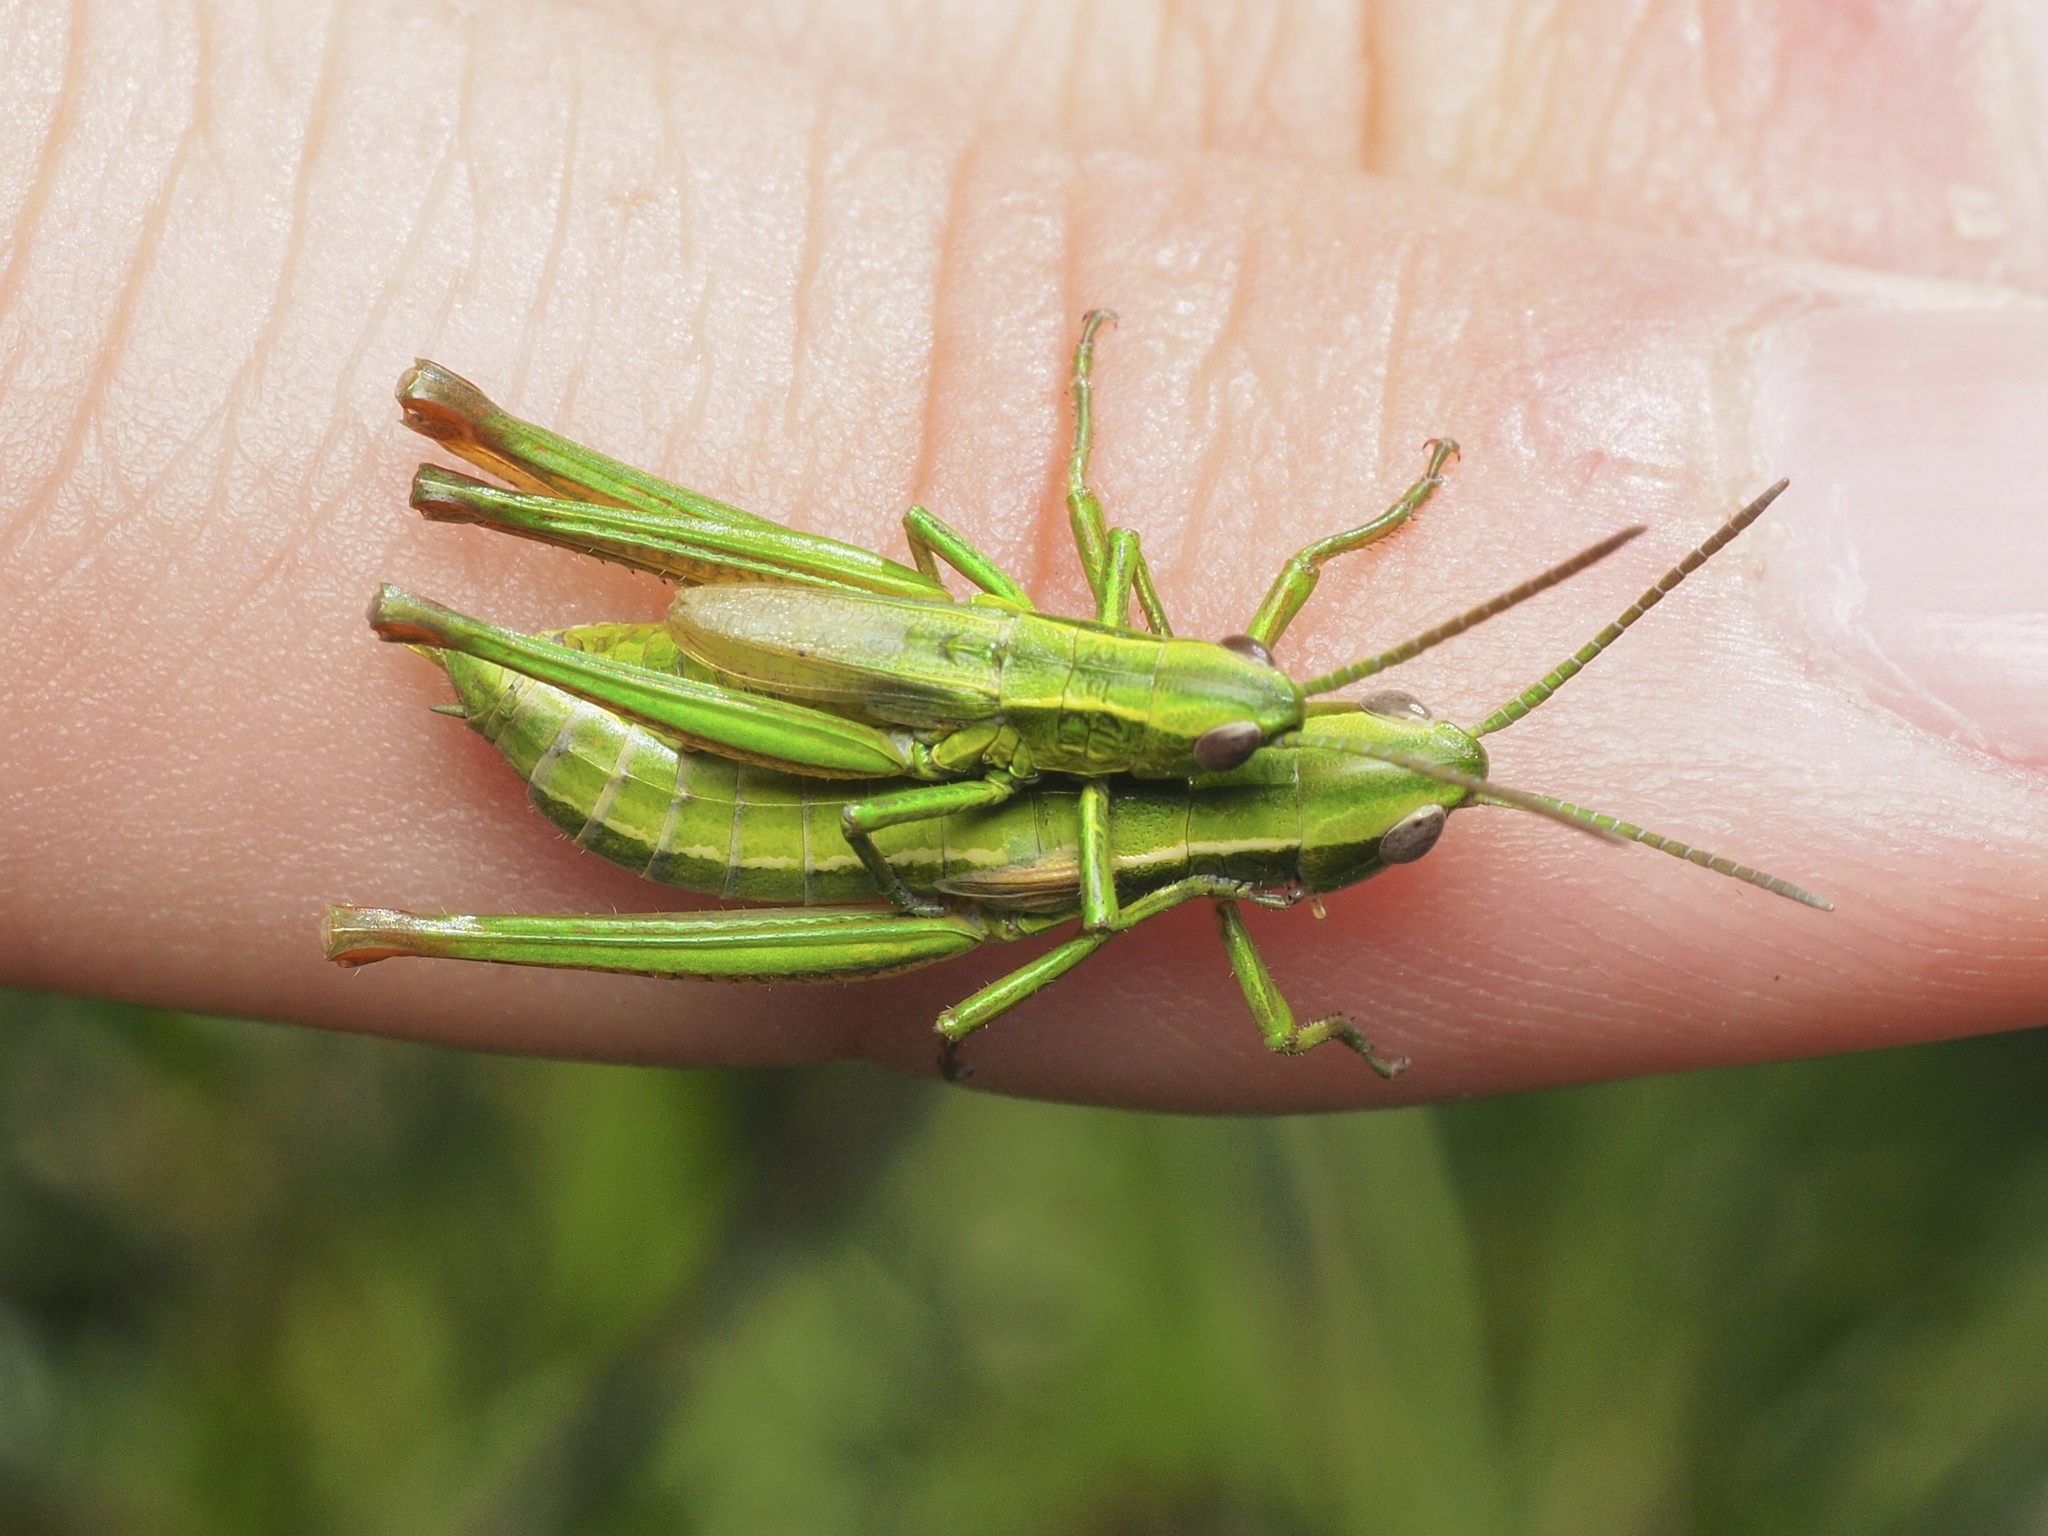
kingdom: Animalia
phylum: Arthropoda
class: Insecta
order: Orthoptera
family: Acrididae
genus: Euthystira
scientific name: Euthystira brachyptera
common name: Small gold grasshopper
